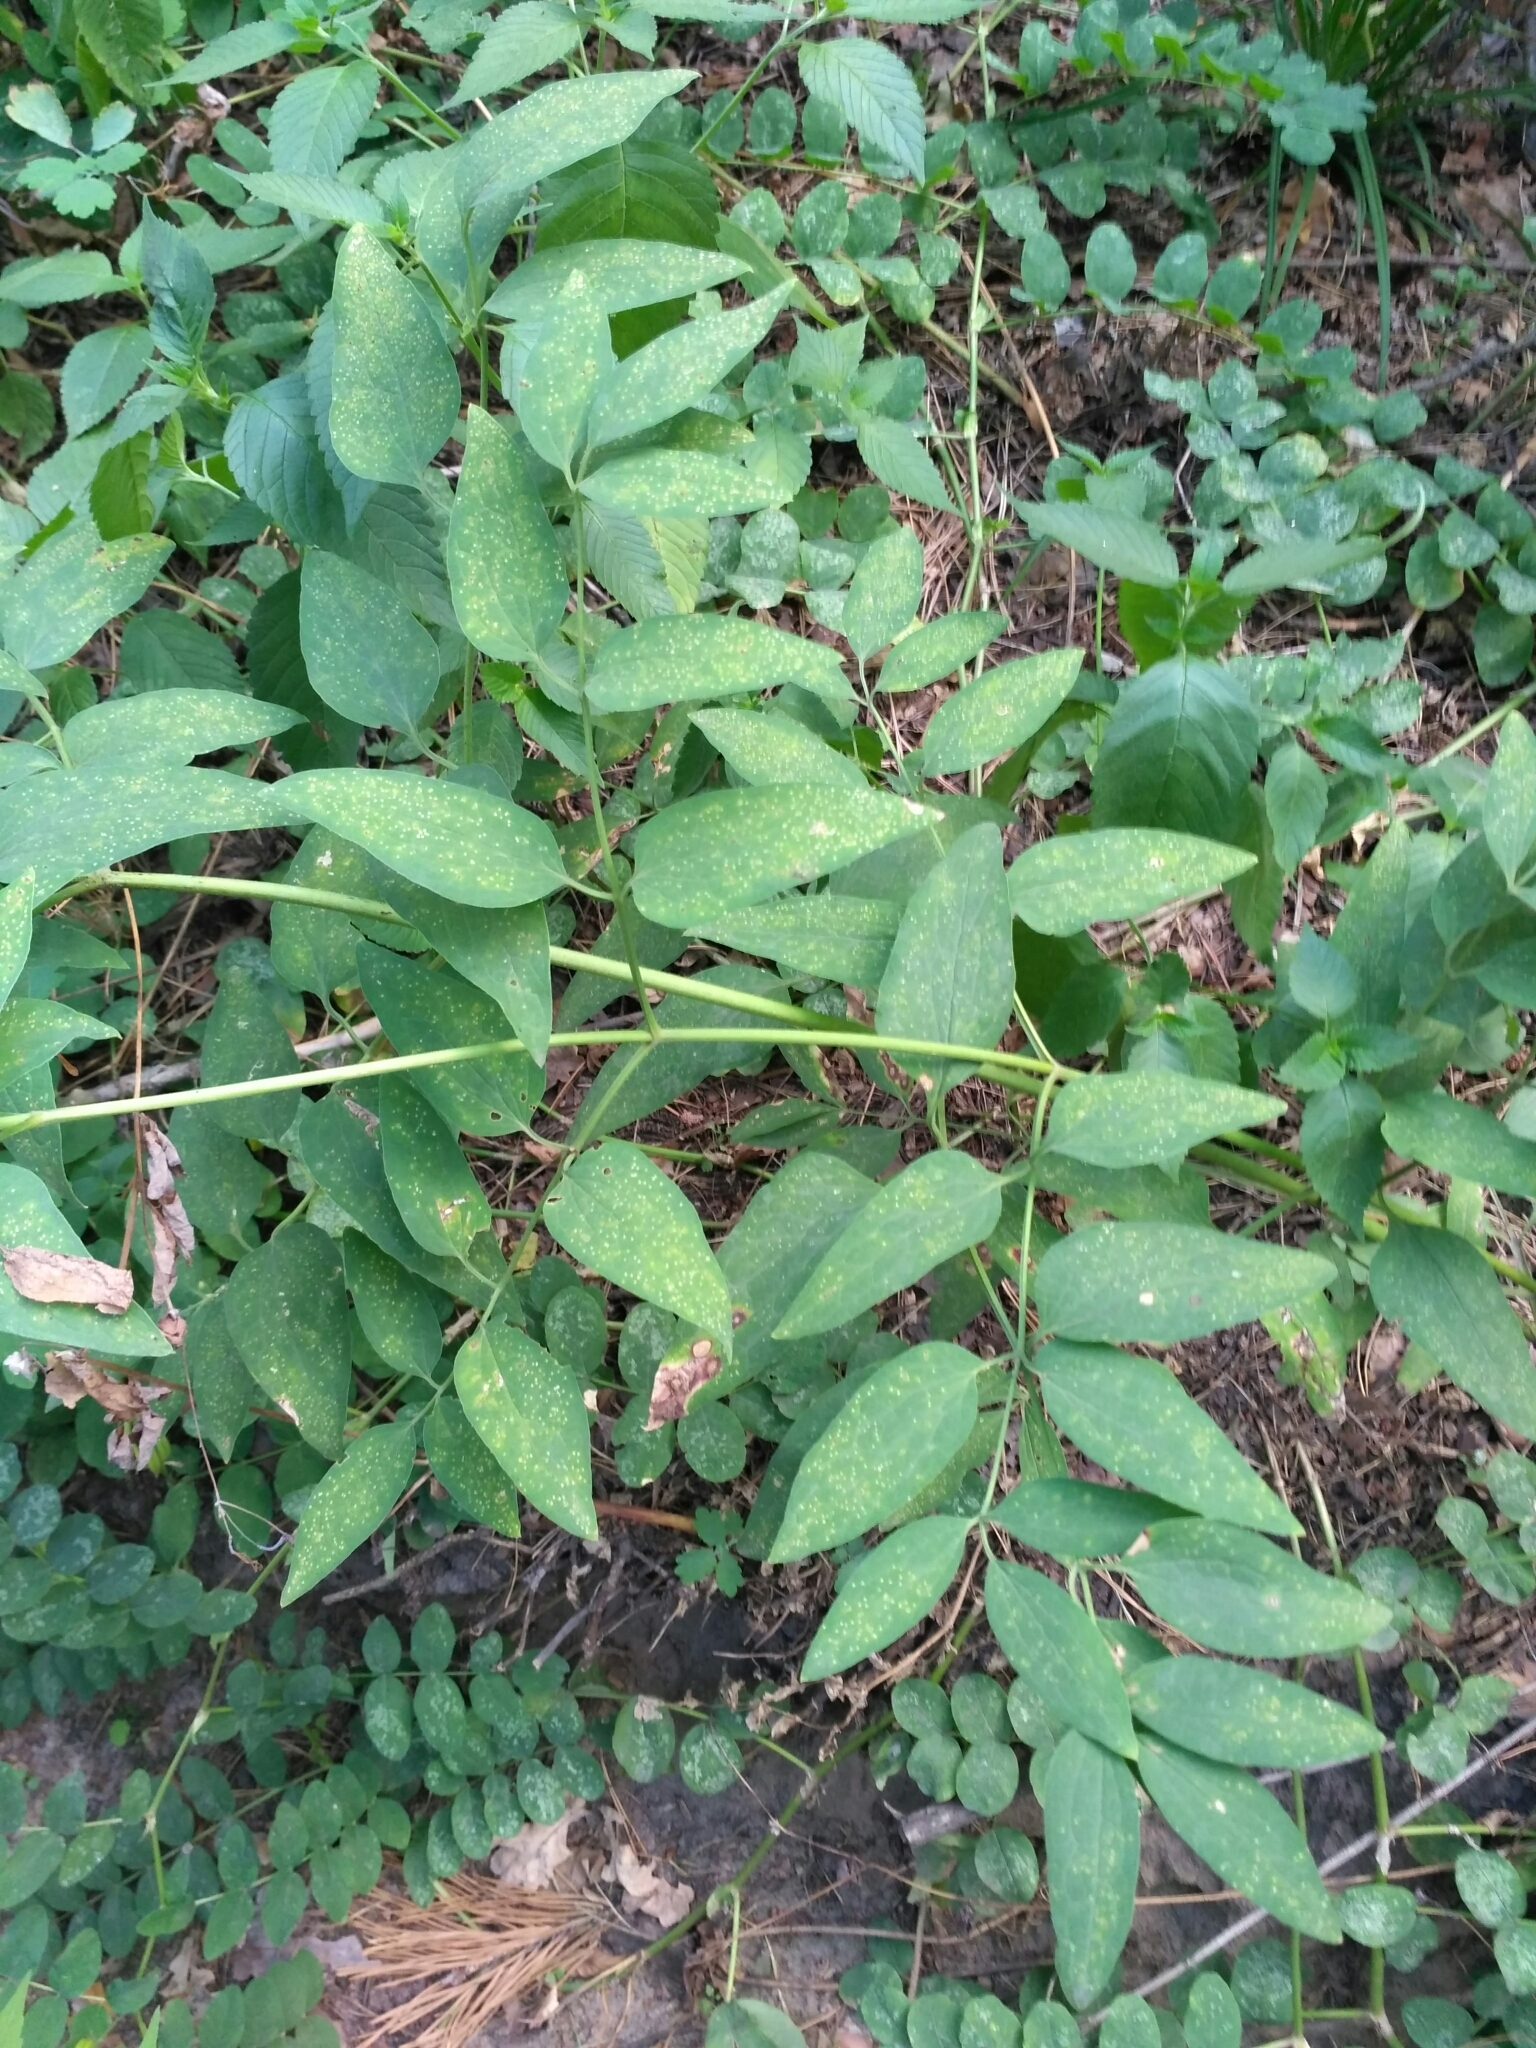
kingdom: Plantae
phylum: Tracheophyta
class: Magnoliopsida
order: Ranunculales
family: Ranunculaceae
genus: Clematis
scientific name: Clematis recta
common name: Ground clematis
